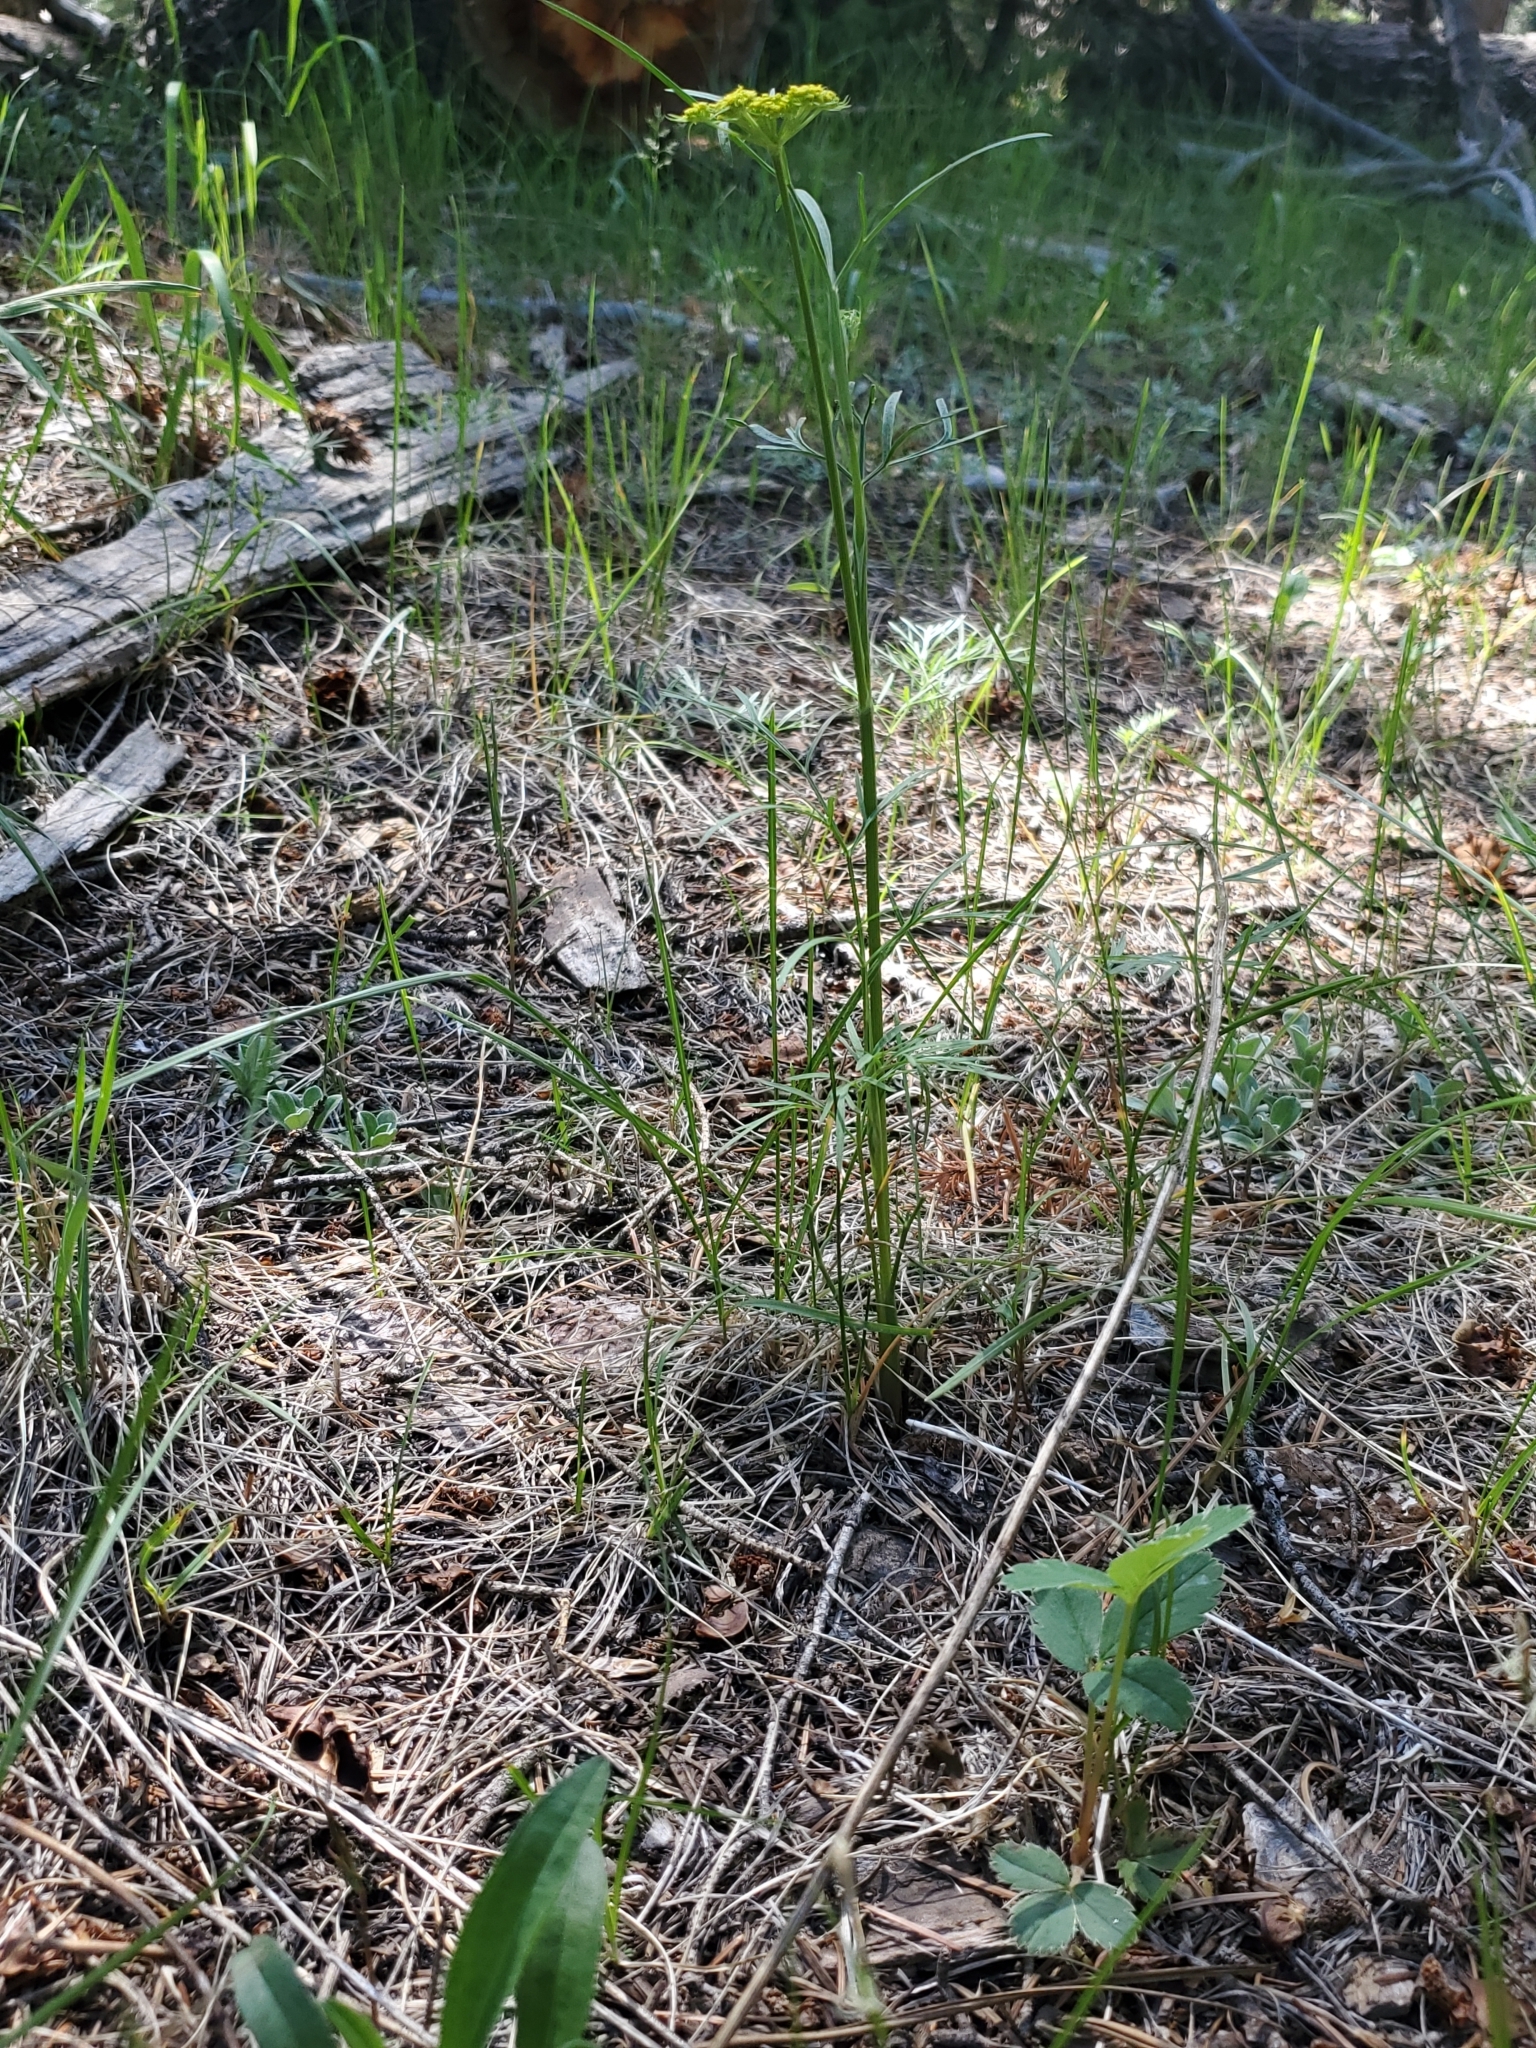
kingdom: Plantae
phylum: Tracheophyta
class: Magnoliopsida
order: Apiales
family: Apiaceae
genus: Cymopterus
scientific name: Cymopterus lemmonii
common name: Lemmon's spring-parsley
